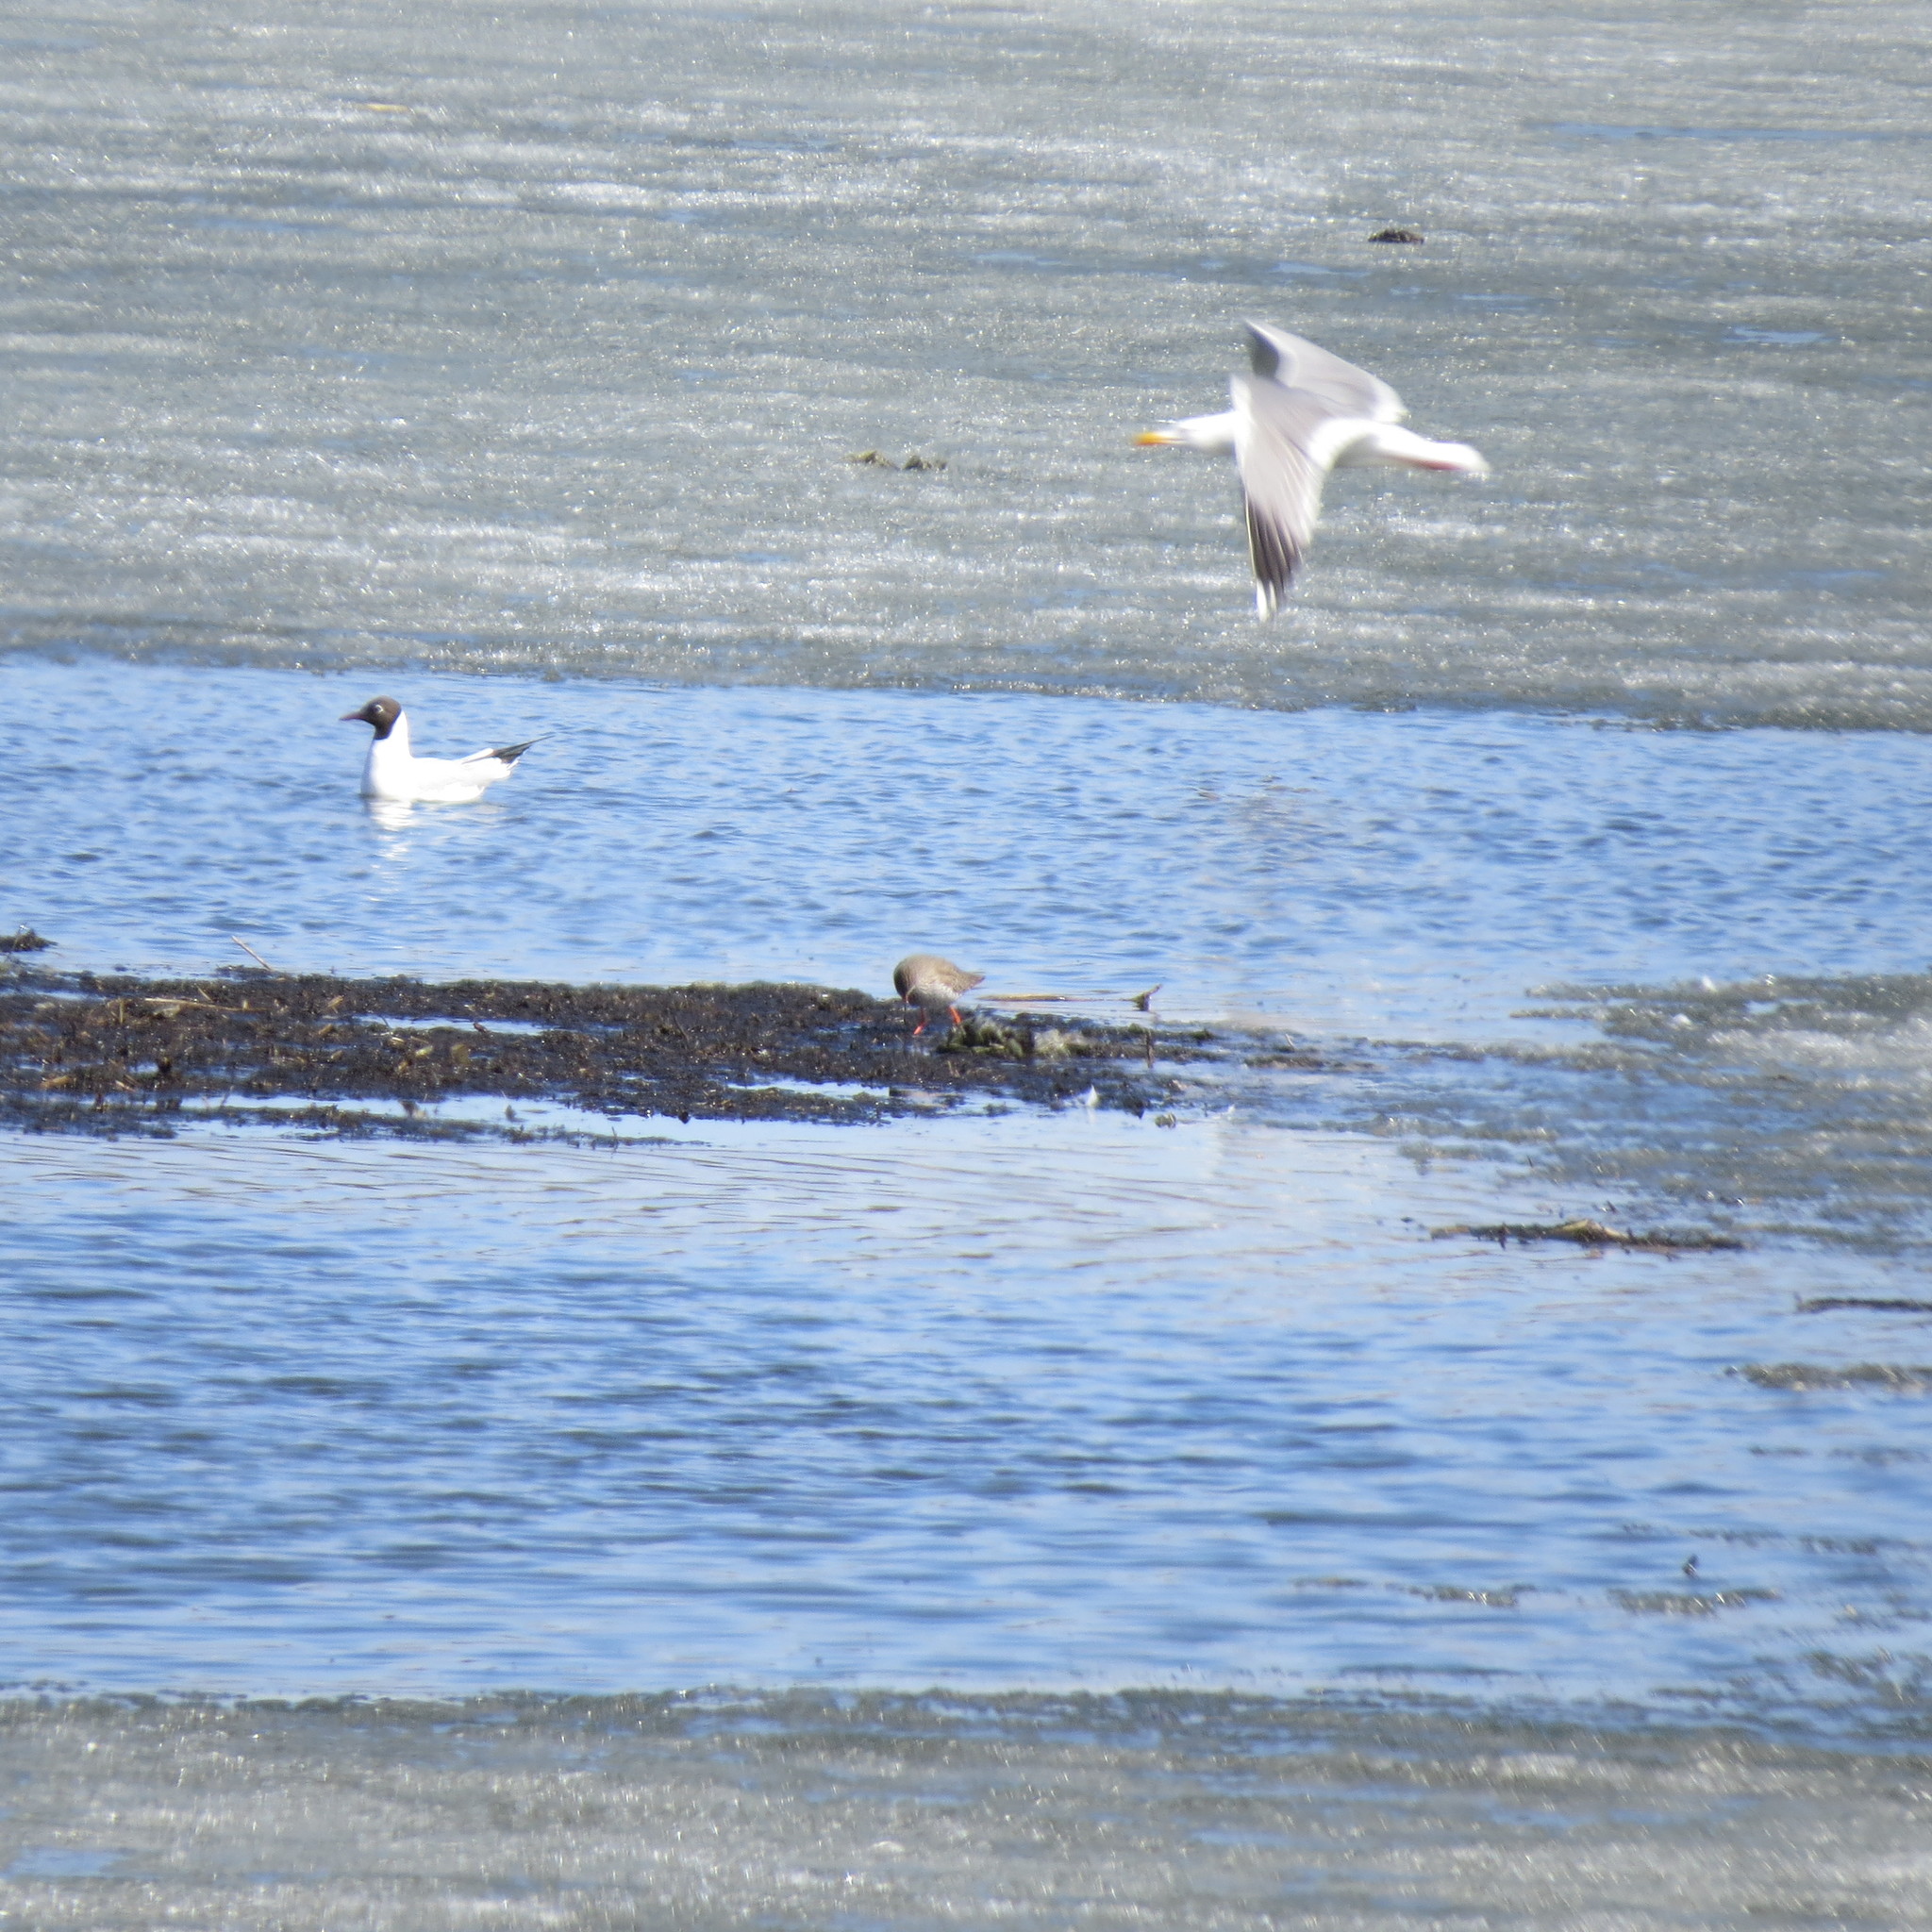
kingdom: Animalia
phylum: Chordata
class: Aves
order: Charadriiformes
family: Scolopacidae
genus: Tringa
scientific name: Tringa totanus
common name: Common redshank
